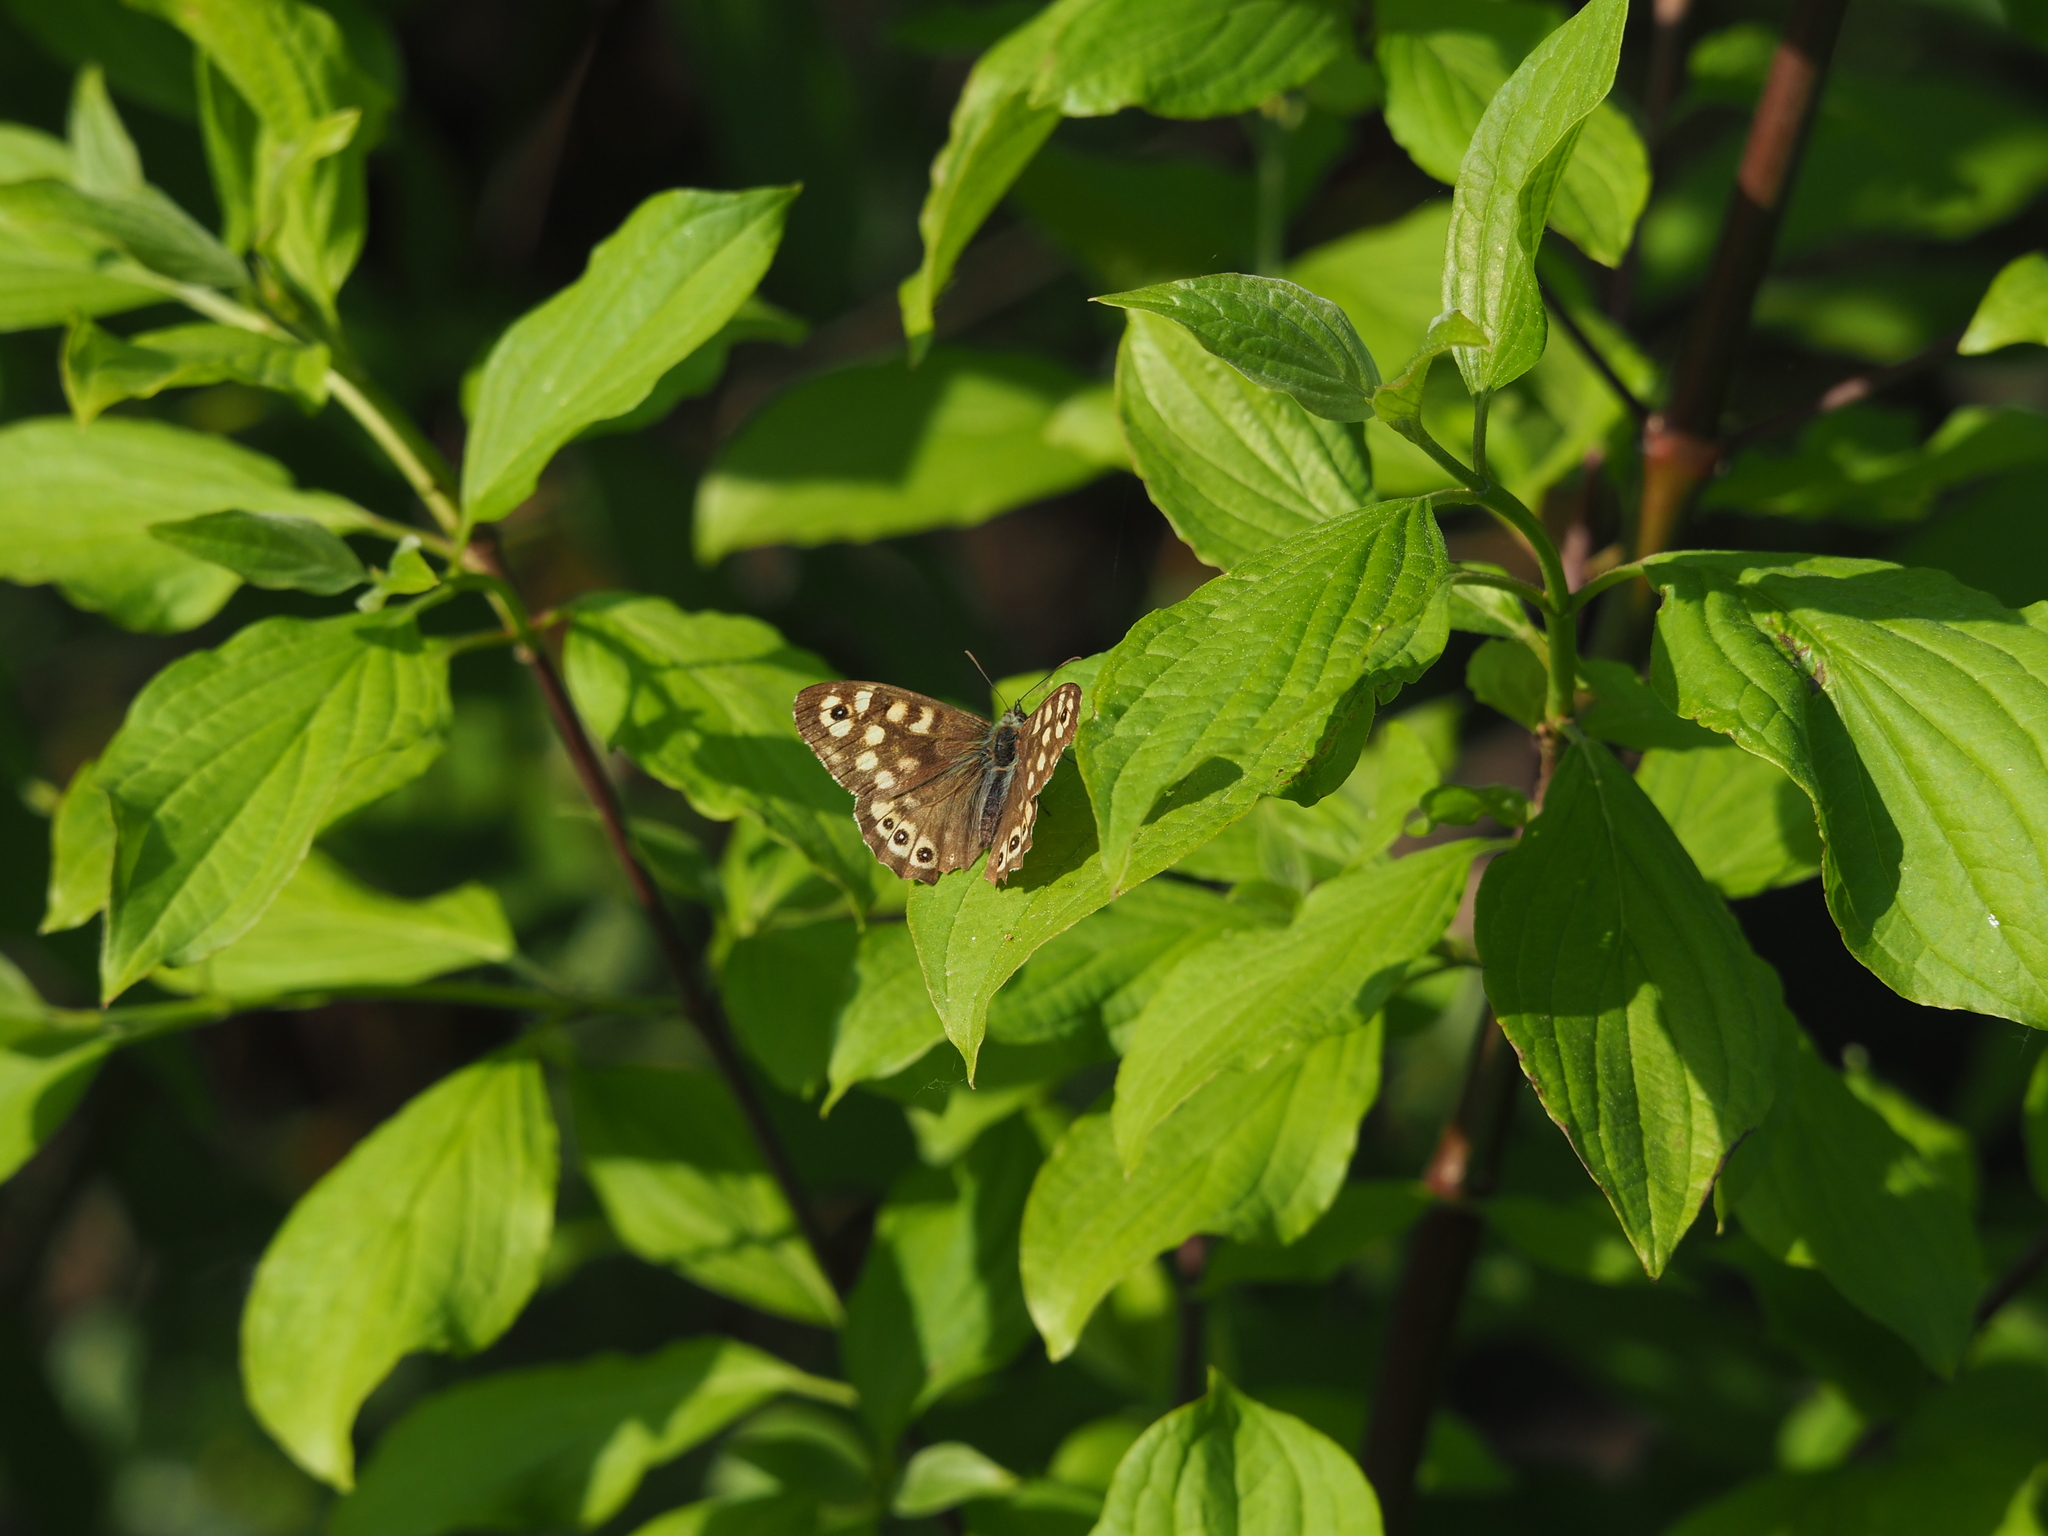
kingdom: Animalia
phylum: Arthropoda
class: Insecta
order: Lepidoptera
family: Nymphalidae
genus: Pararge
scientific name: Pararge aegeria
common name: Speckled wood
